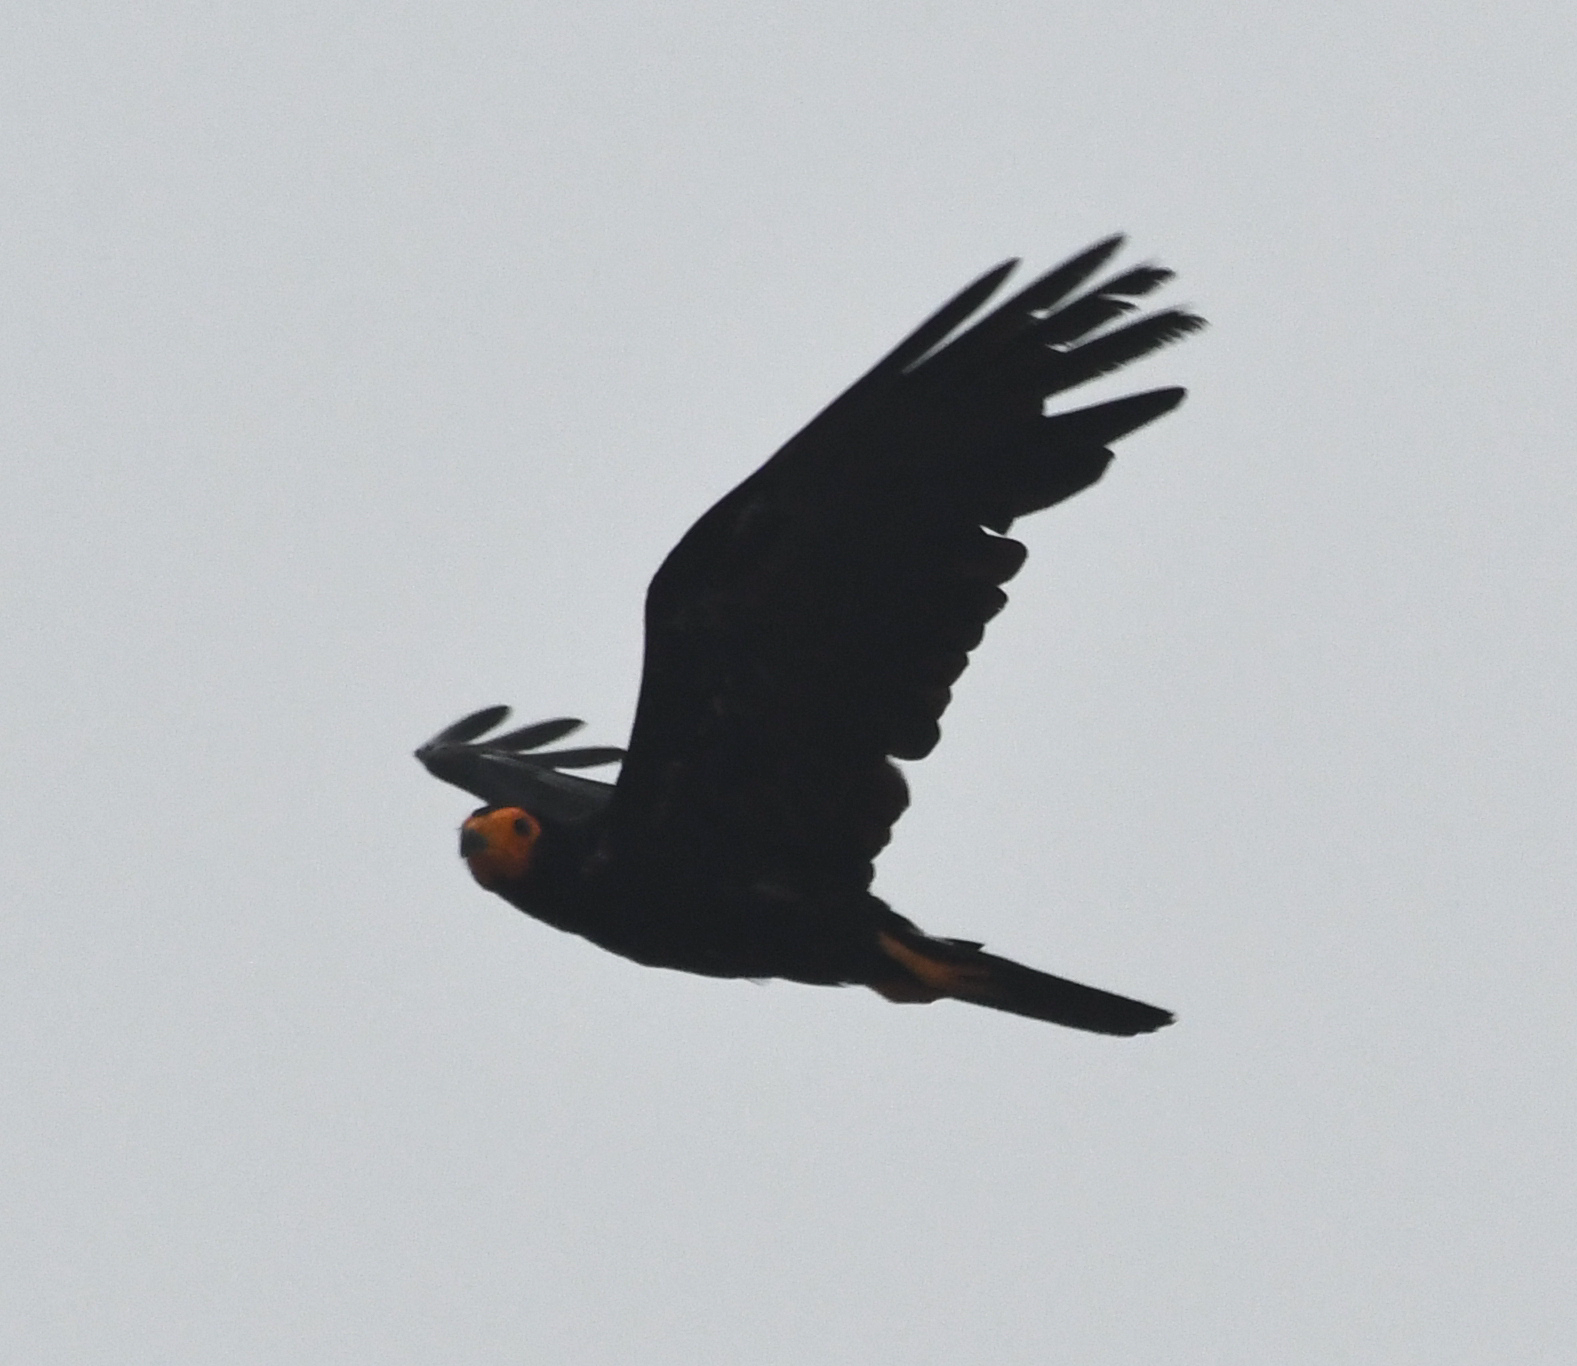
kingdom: Animalia
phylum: Chordata
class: Aves
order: Falconiformes
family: Falconidae
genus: Daptrius
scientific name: Daptrius ater
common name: Black caracara
